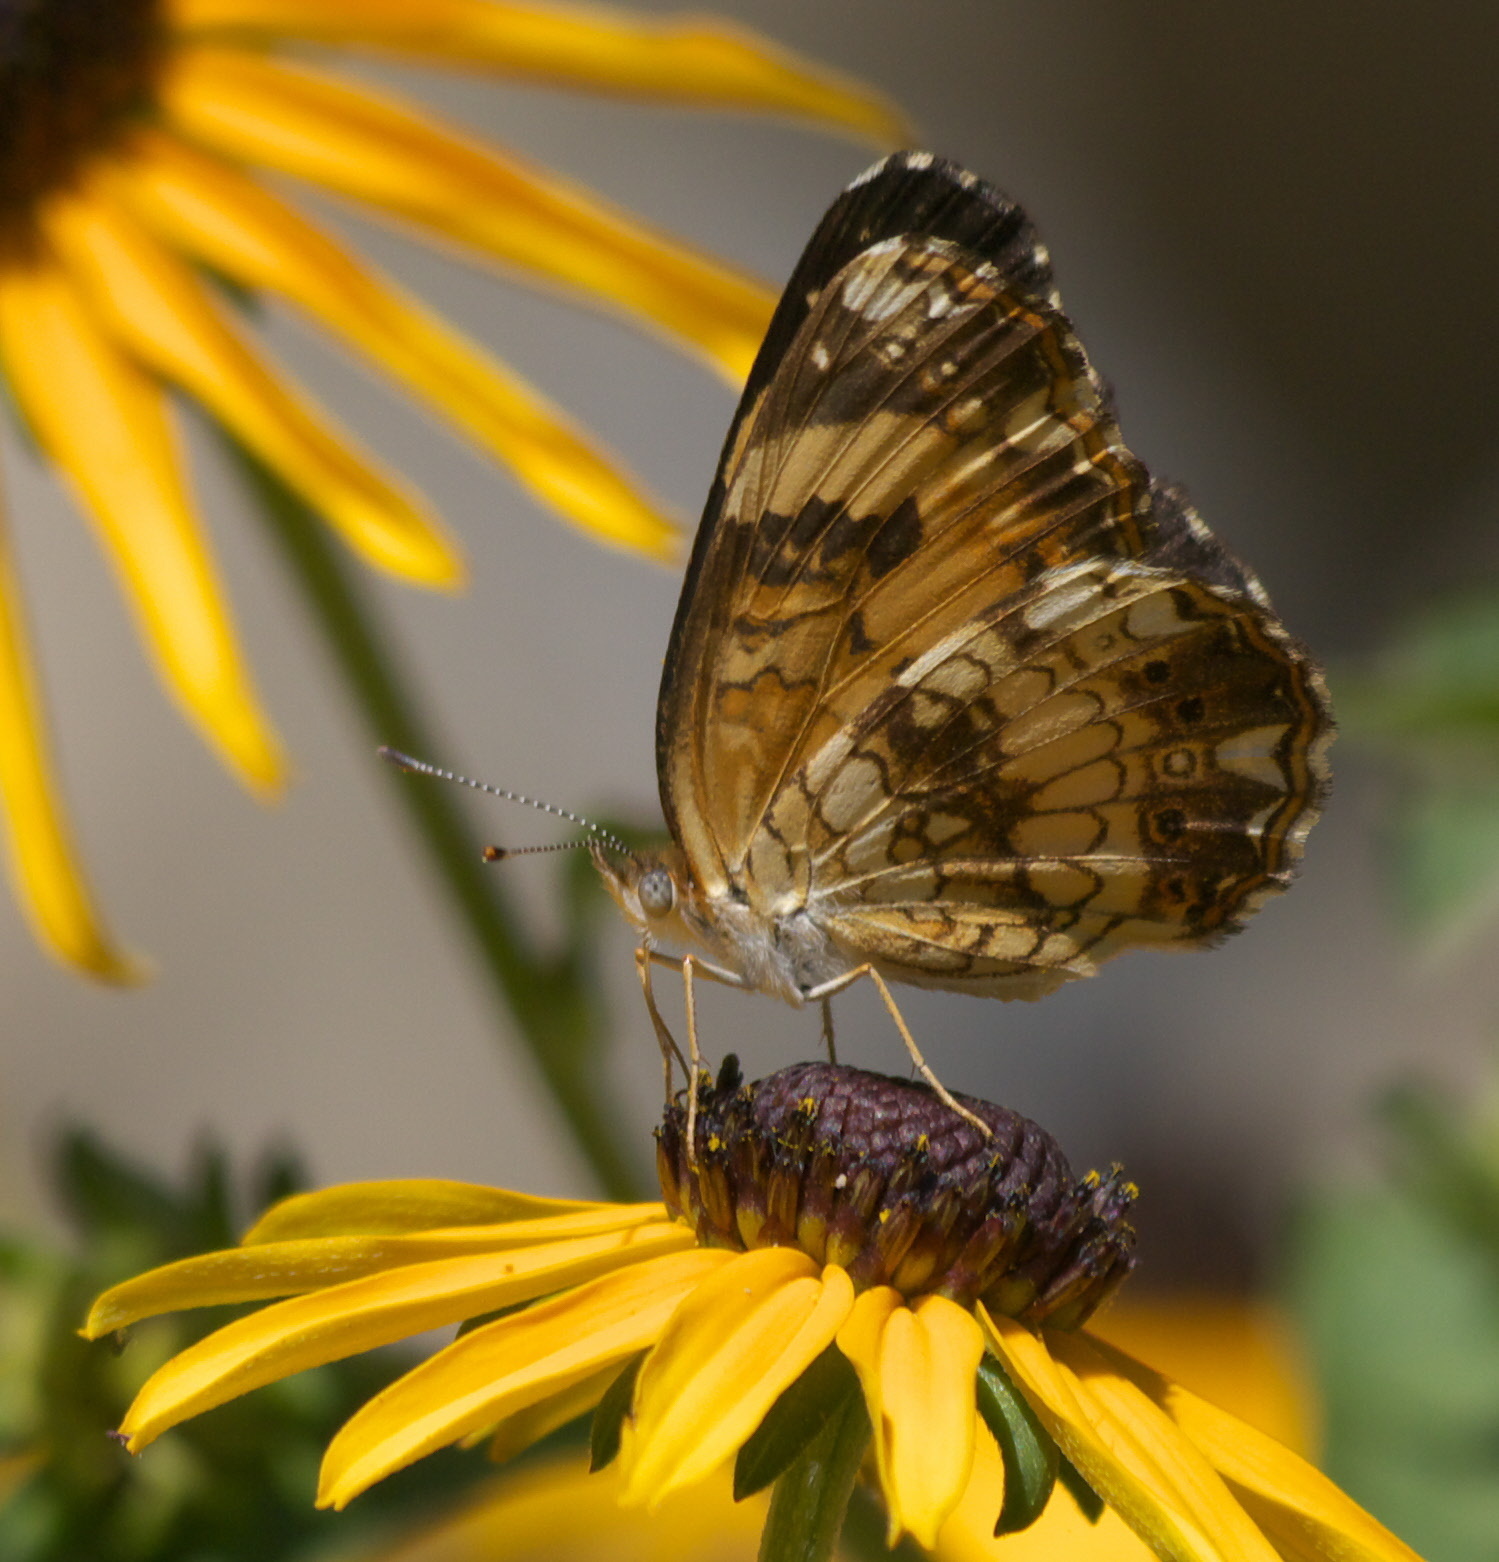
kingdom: Animalia
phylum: Arthropoda
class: Insecta
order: Lepidoptera
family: Nymphalidae
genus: Chlosyne
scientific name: Chlosyne nycteis
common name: Silvery checkerspot
